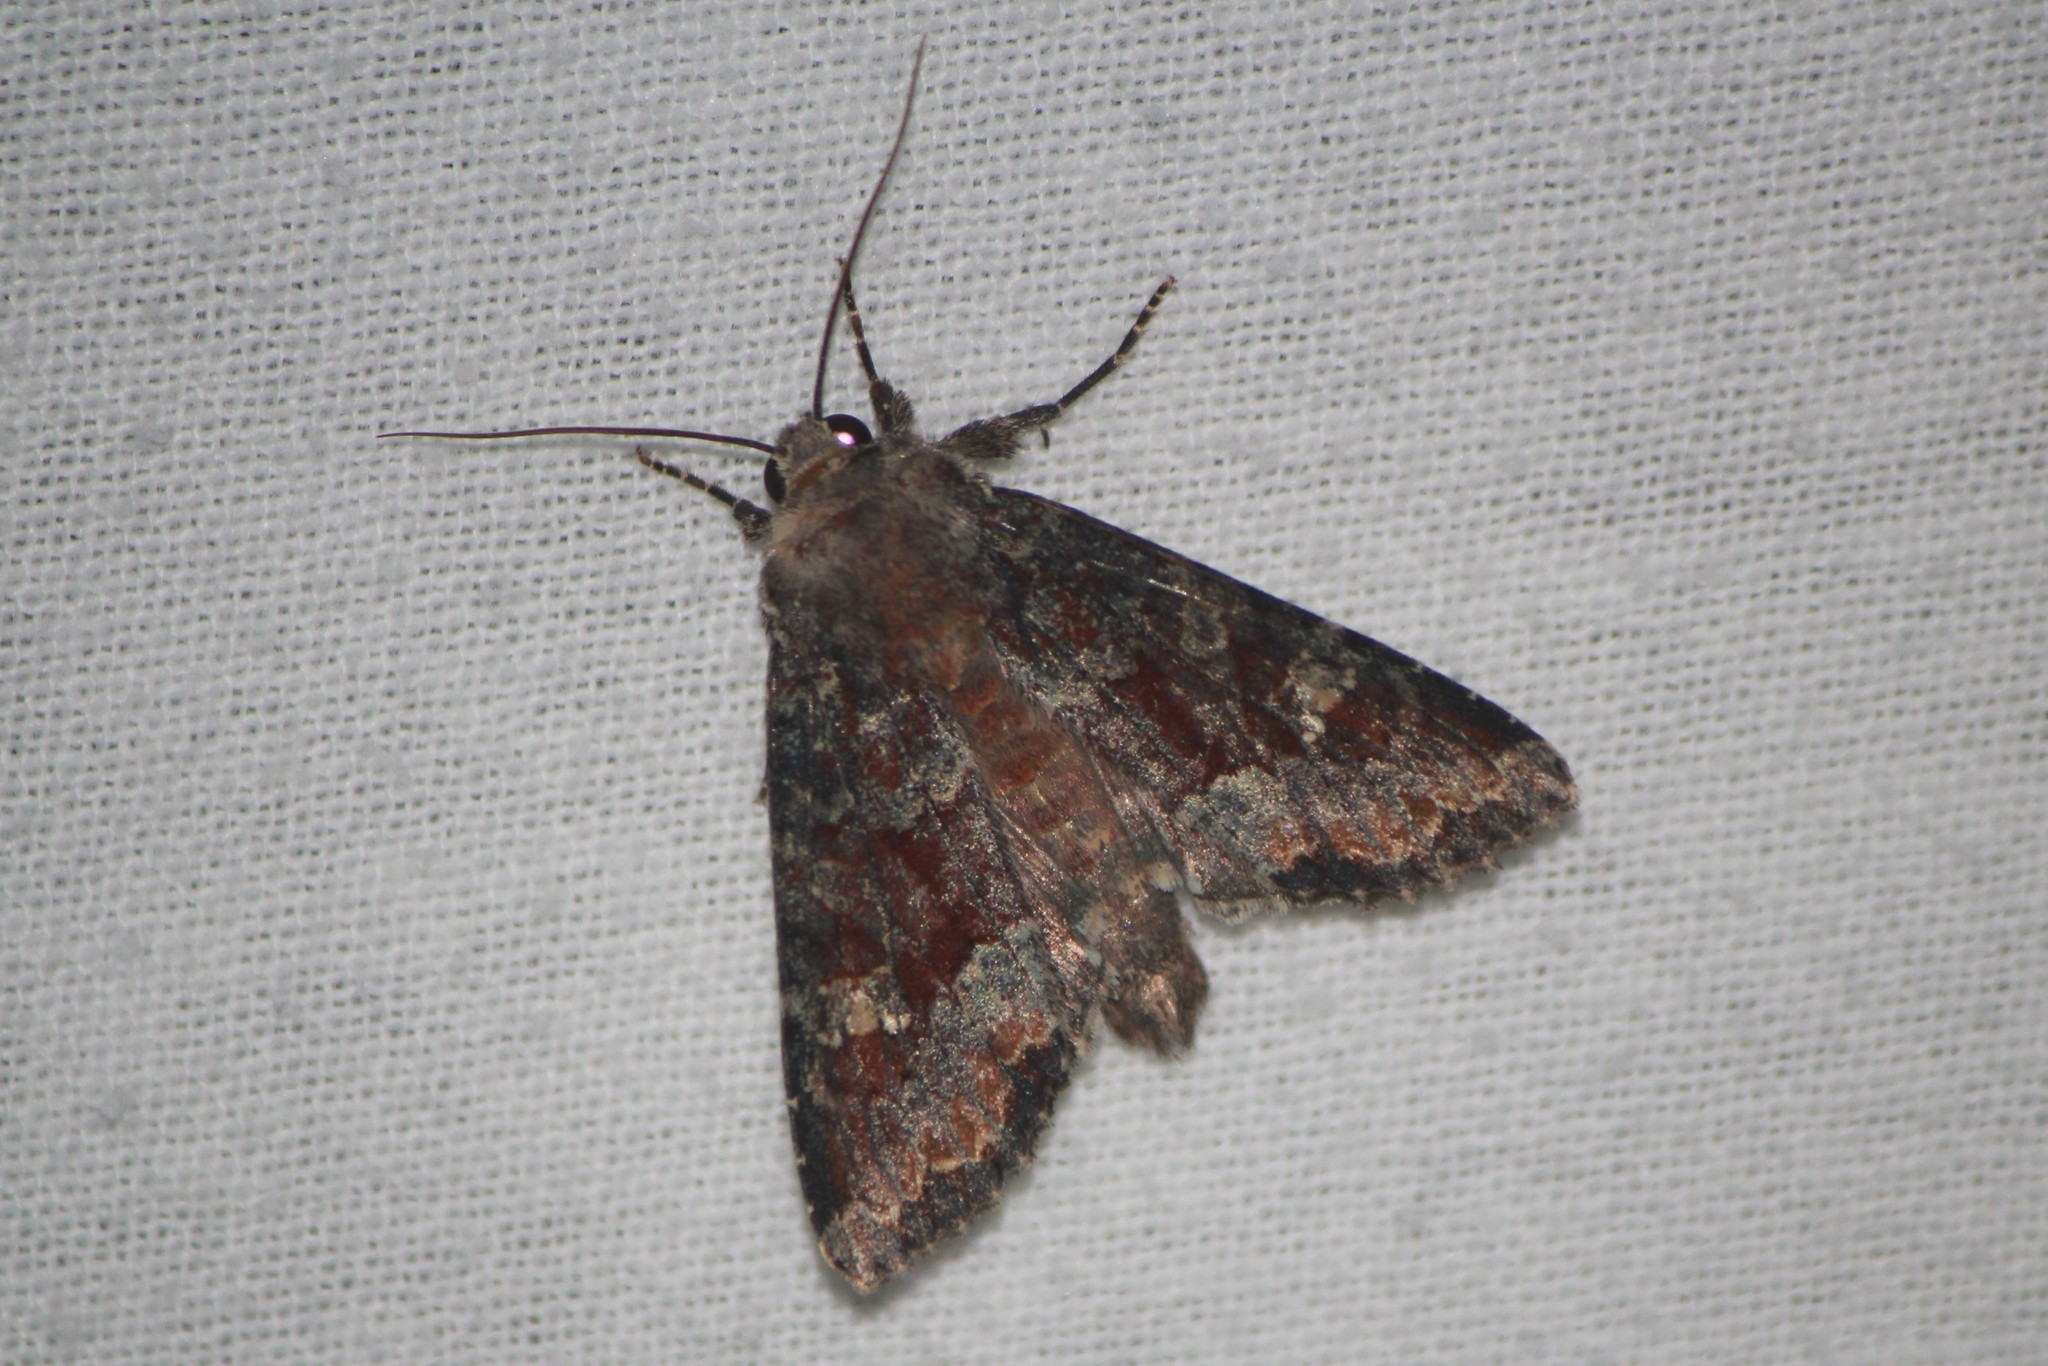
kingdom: Animalia
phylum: Arthropoda
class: Insecta
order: Lepidoptera
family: Noctuidae
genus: Apamea
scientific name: Apamea amputatrix
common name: Yellow-headed cutworm moth
